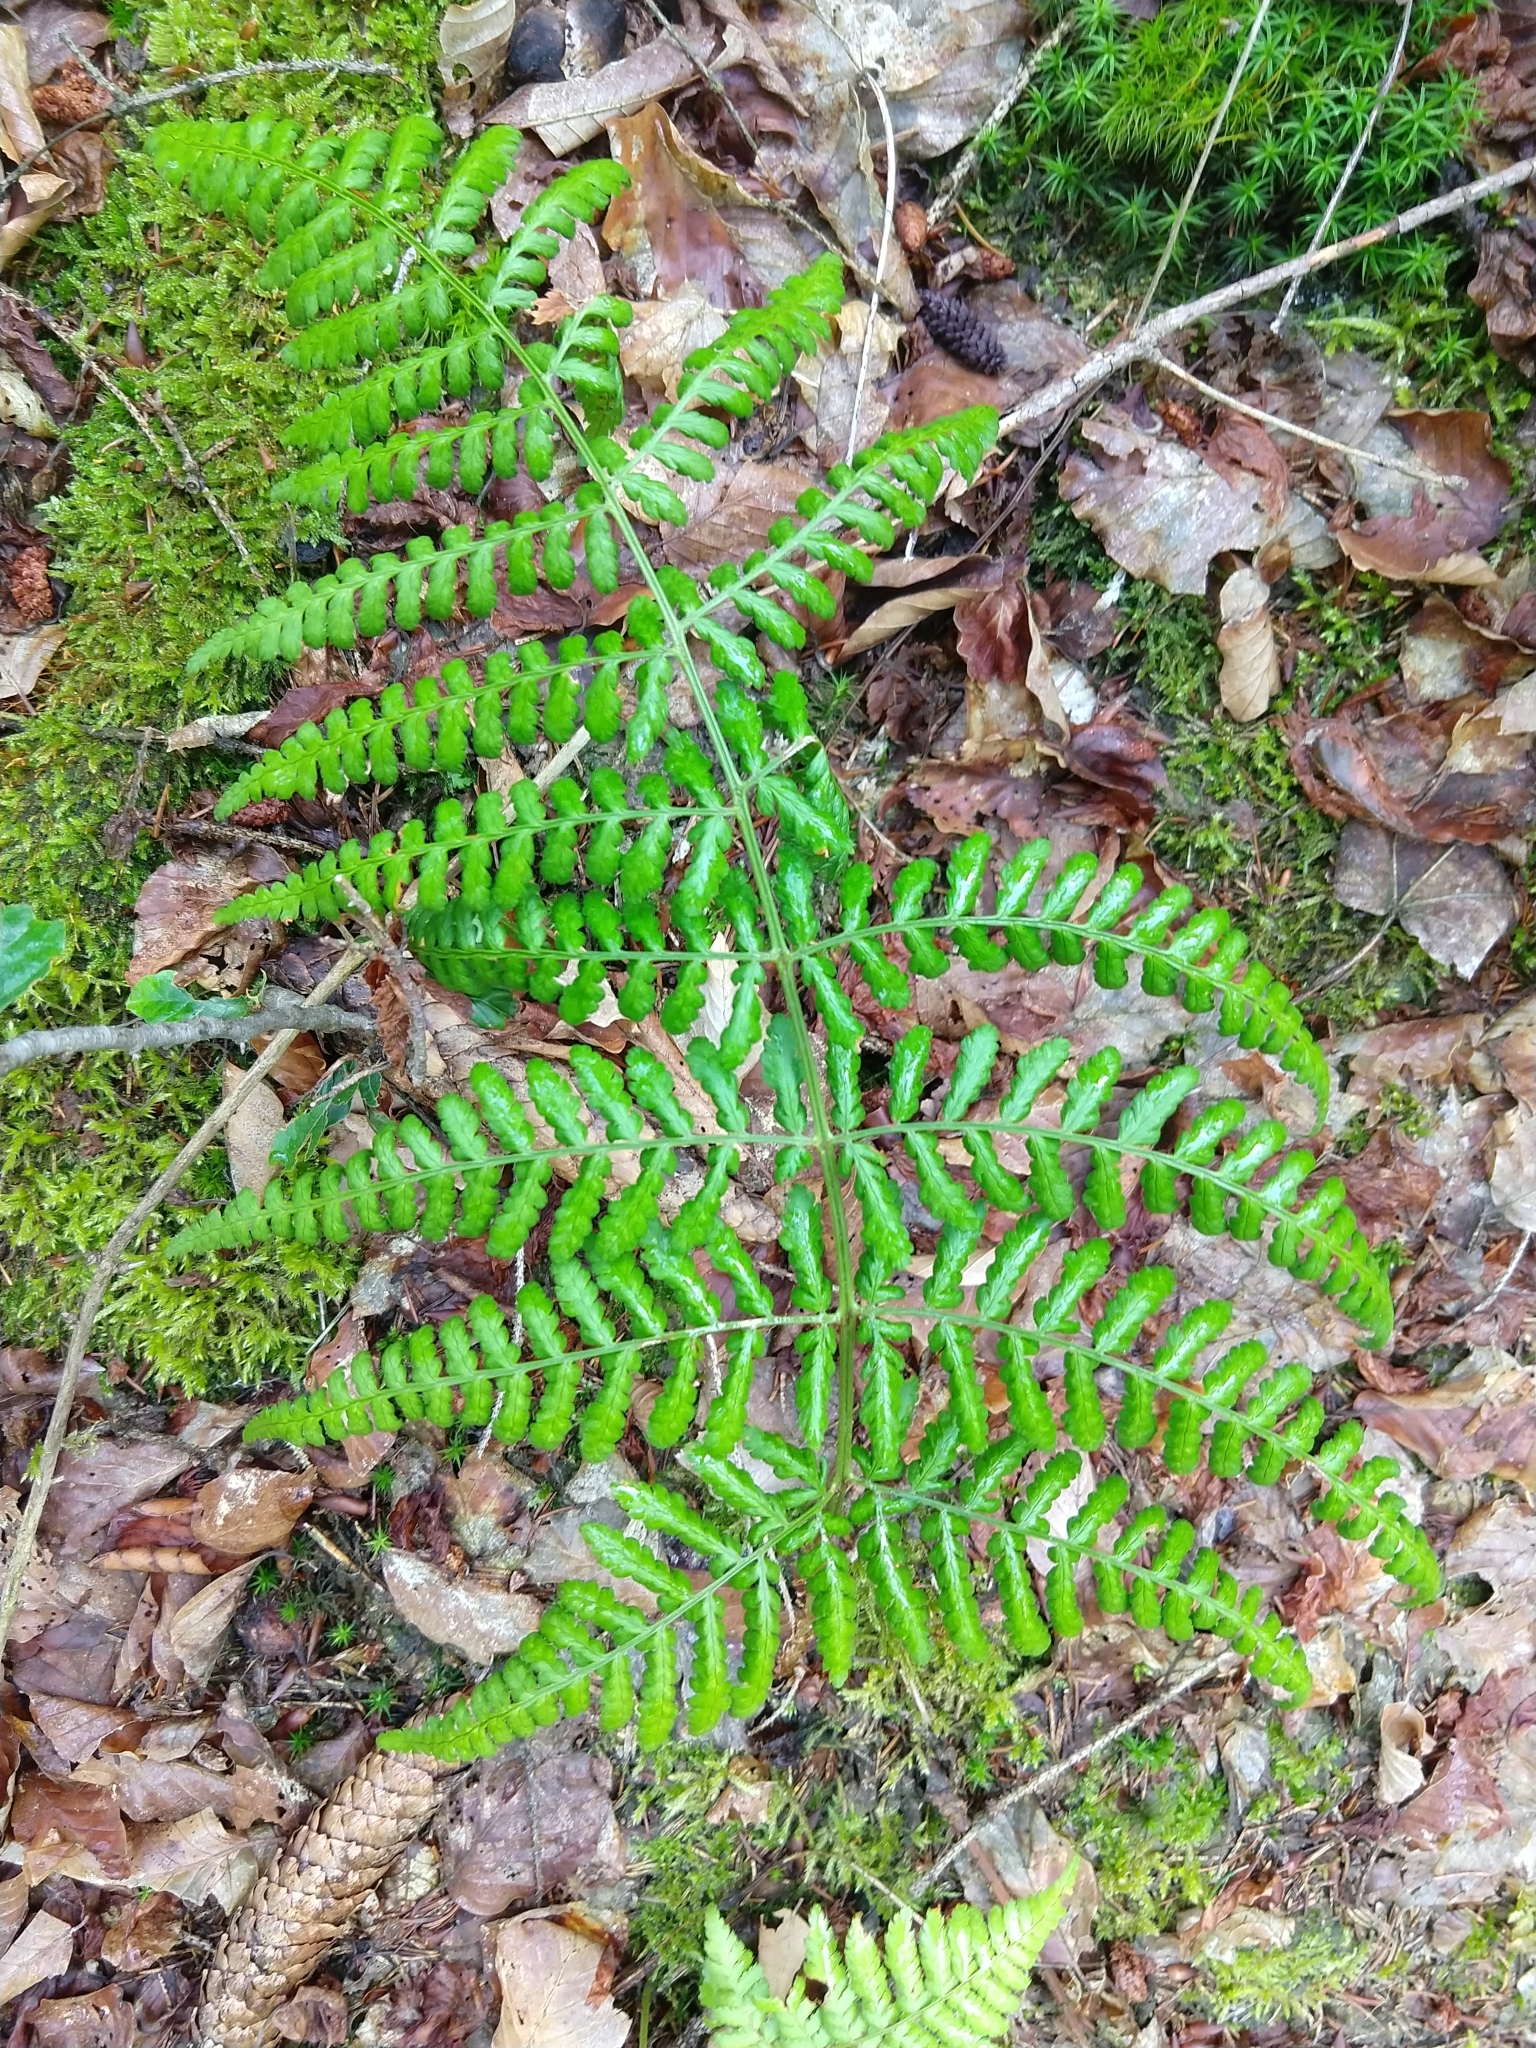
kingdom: Plantae
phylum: Tracheophyta
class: Polypodiopsida
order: Polypodiales
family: Dryopteridaceae
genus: Dryopteris
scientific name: Dryopteris dilatata
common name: Broad buckler-fern
